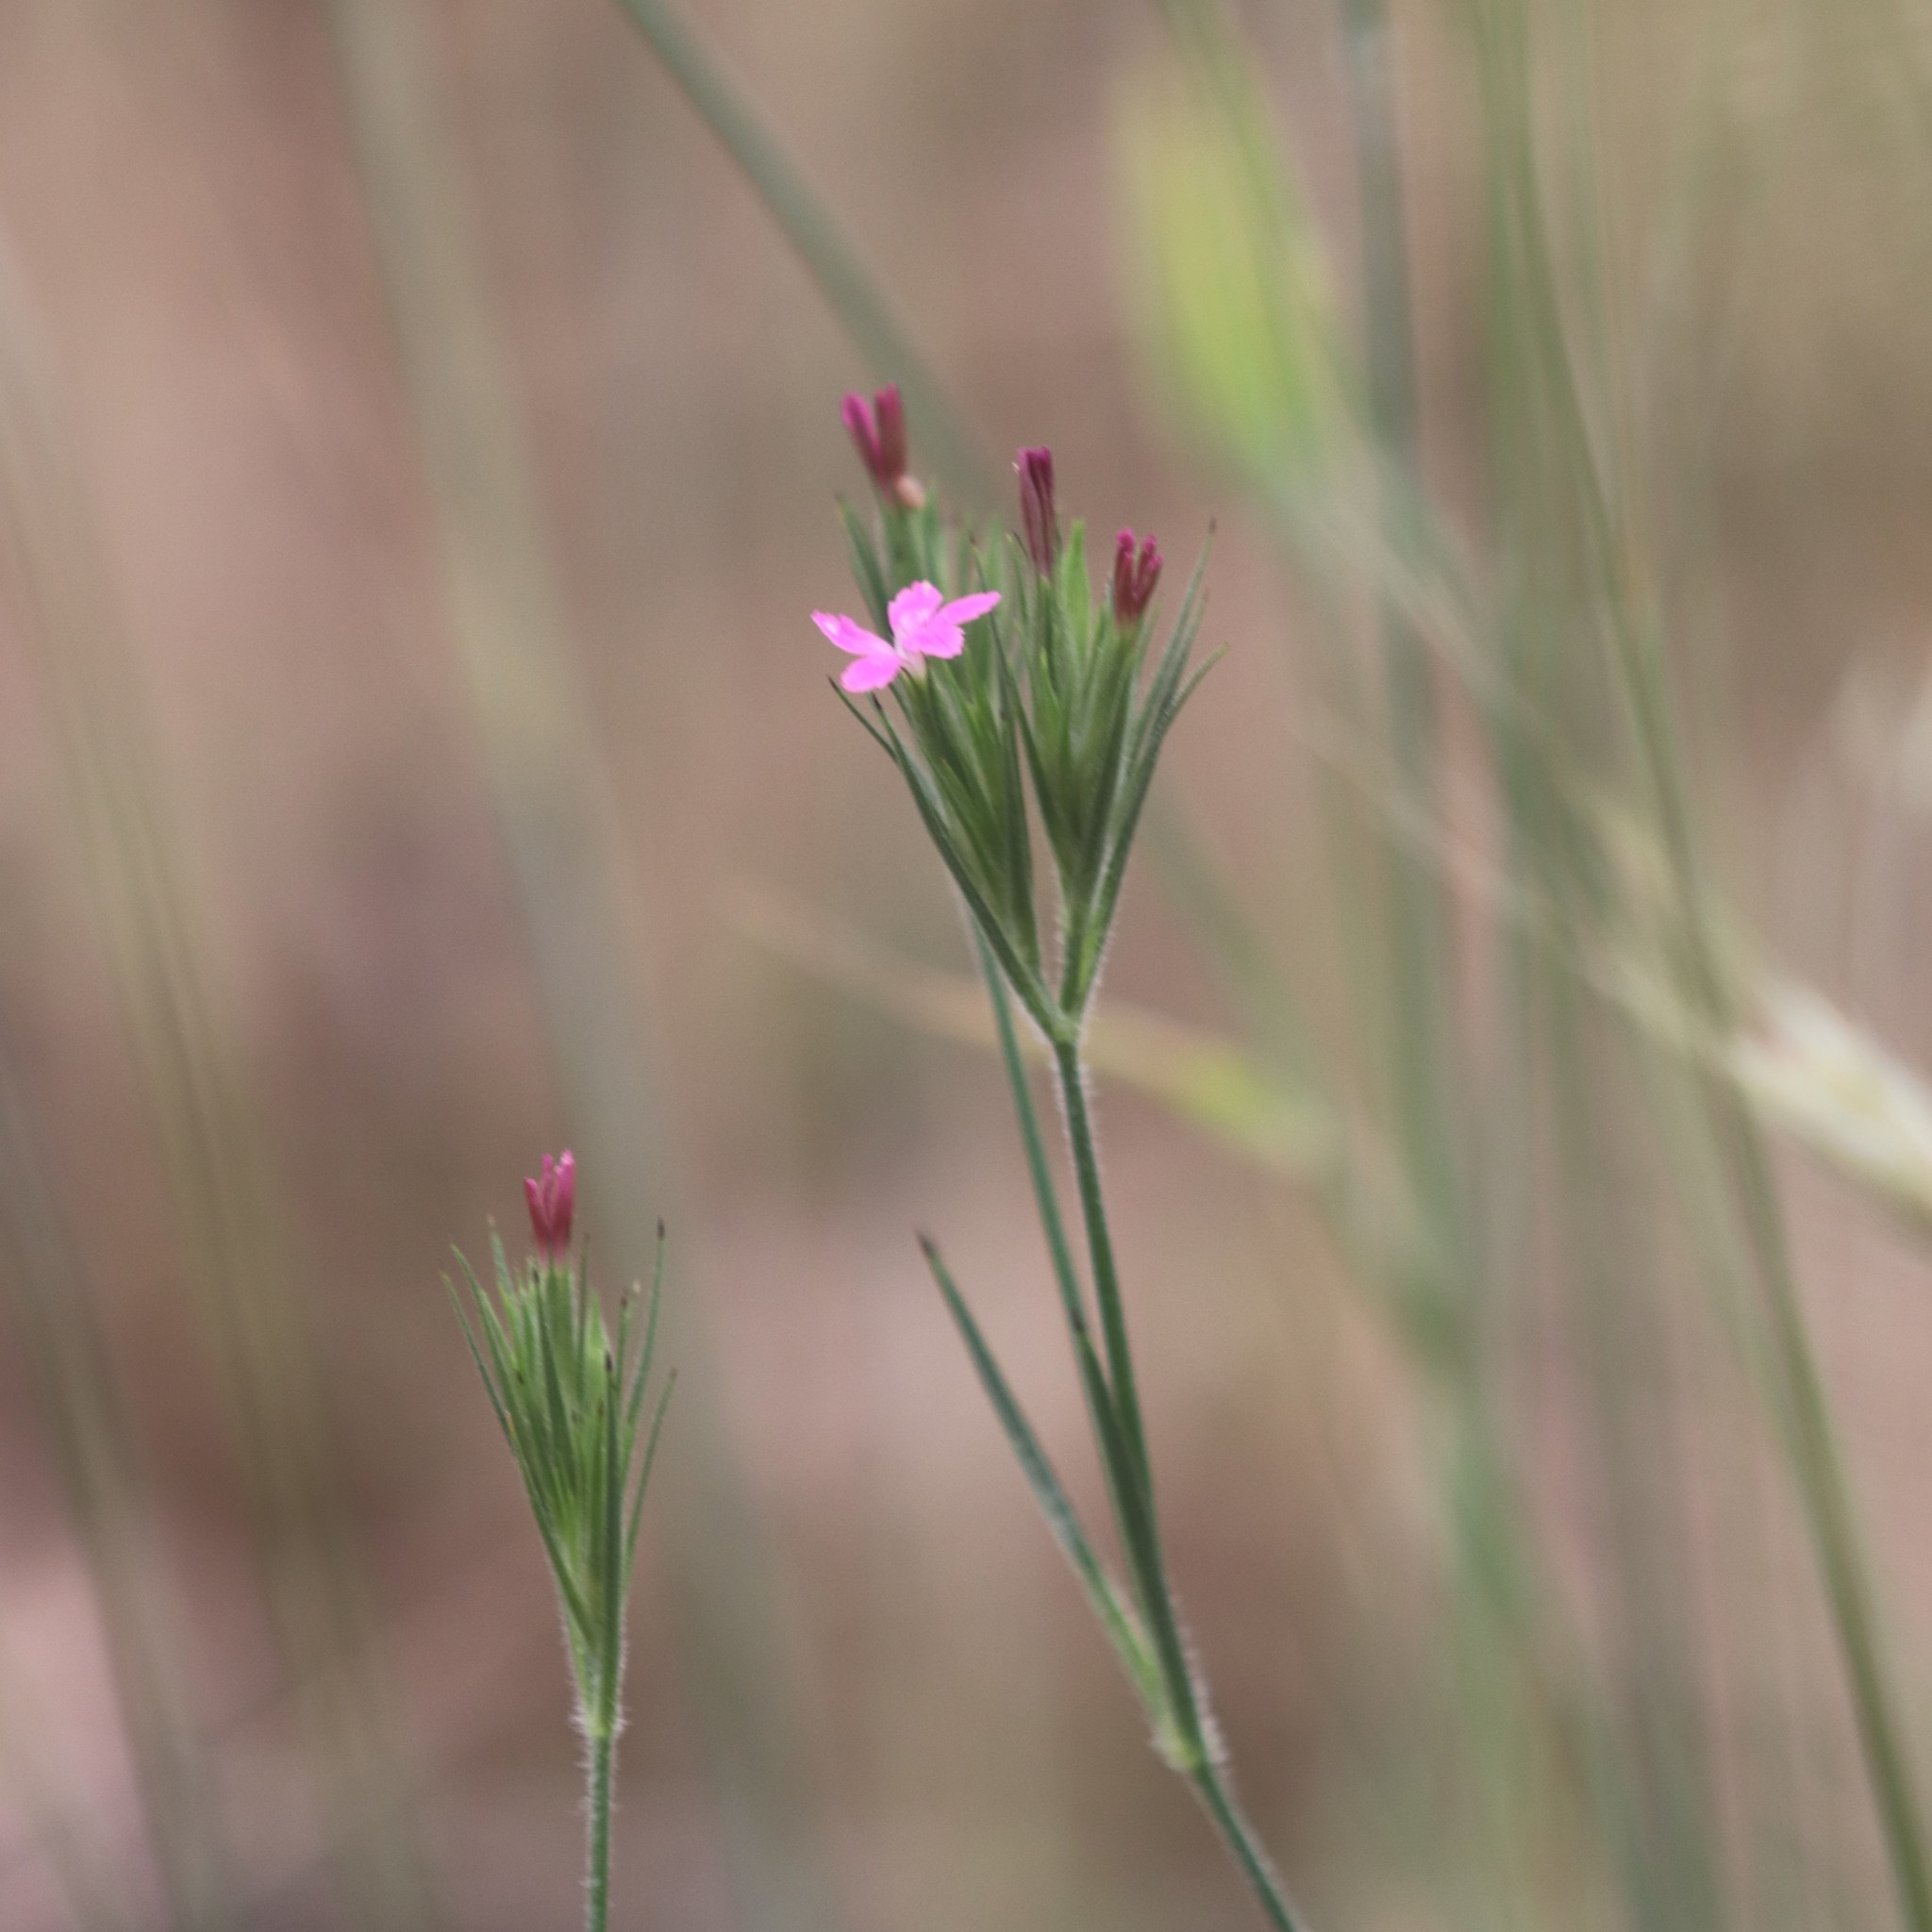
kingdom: Plantae
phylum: Tracheophyta
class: Magnoliopsida
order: Caryophyllales
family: Caryophyllaceae
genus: Dianthus
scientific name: Dianthus armeria
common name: Deptford pink
